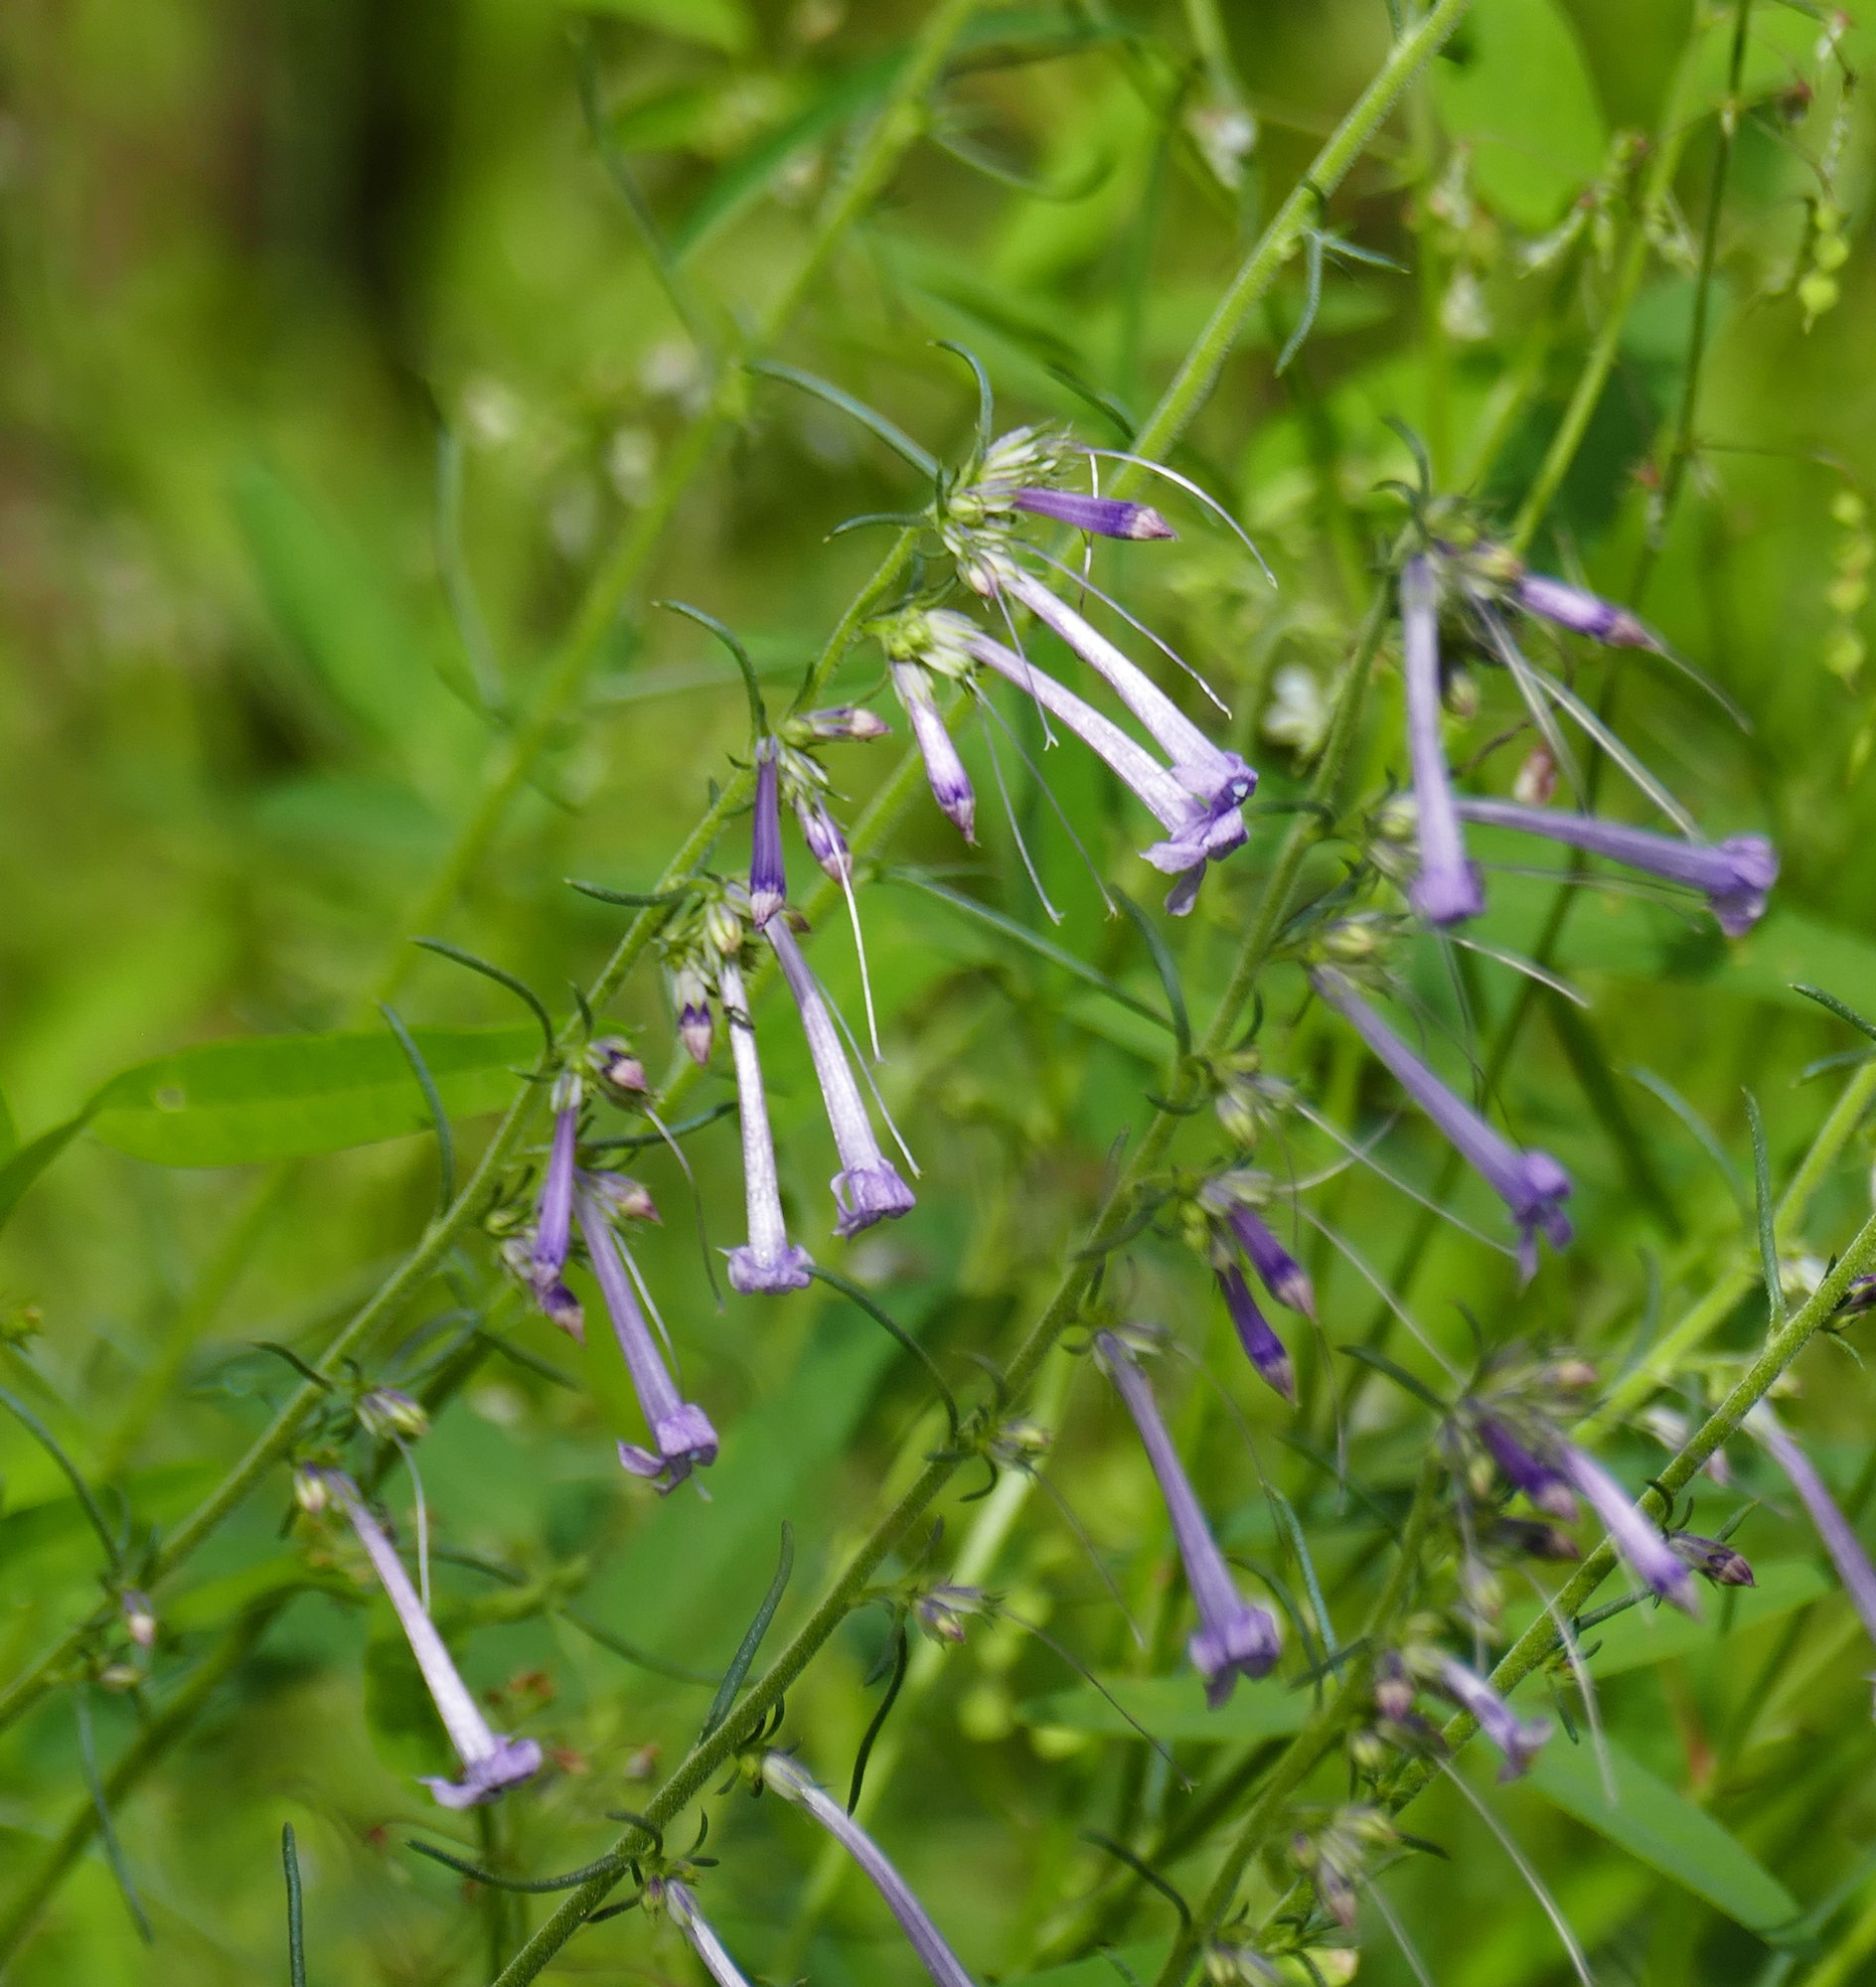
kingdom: Plantae
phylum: Tracheophyta
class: Magnoliopsida
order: Ericales
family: Polemoniaceae
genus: Ipomopsis
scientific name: Ipomopsis macombii
